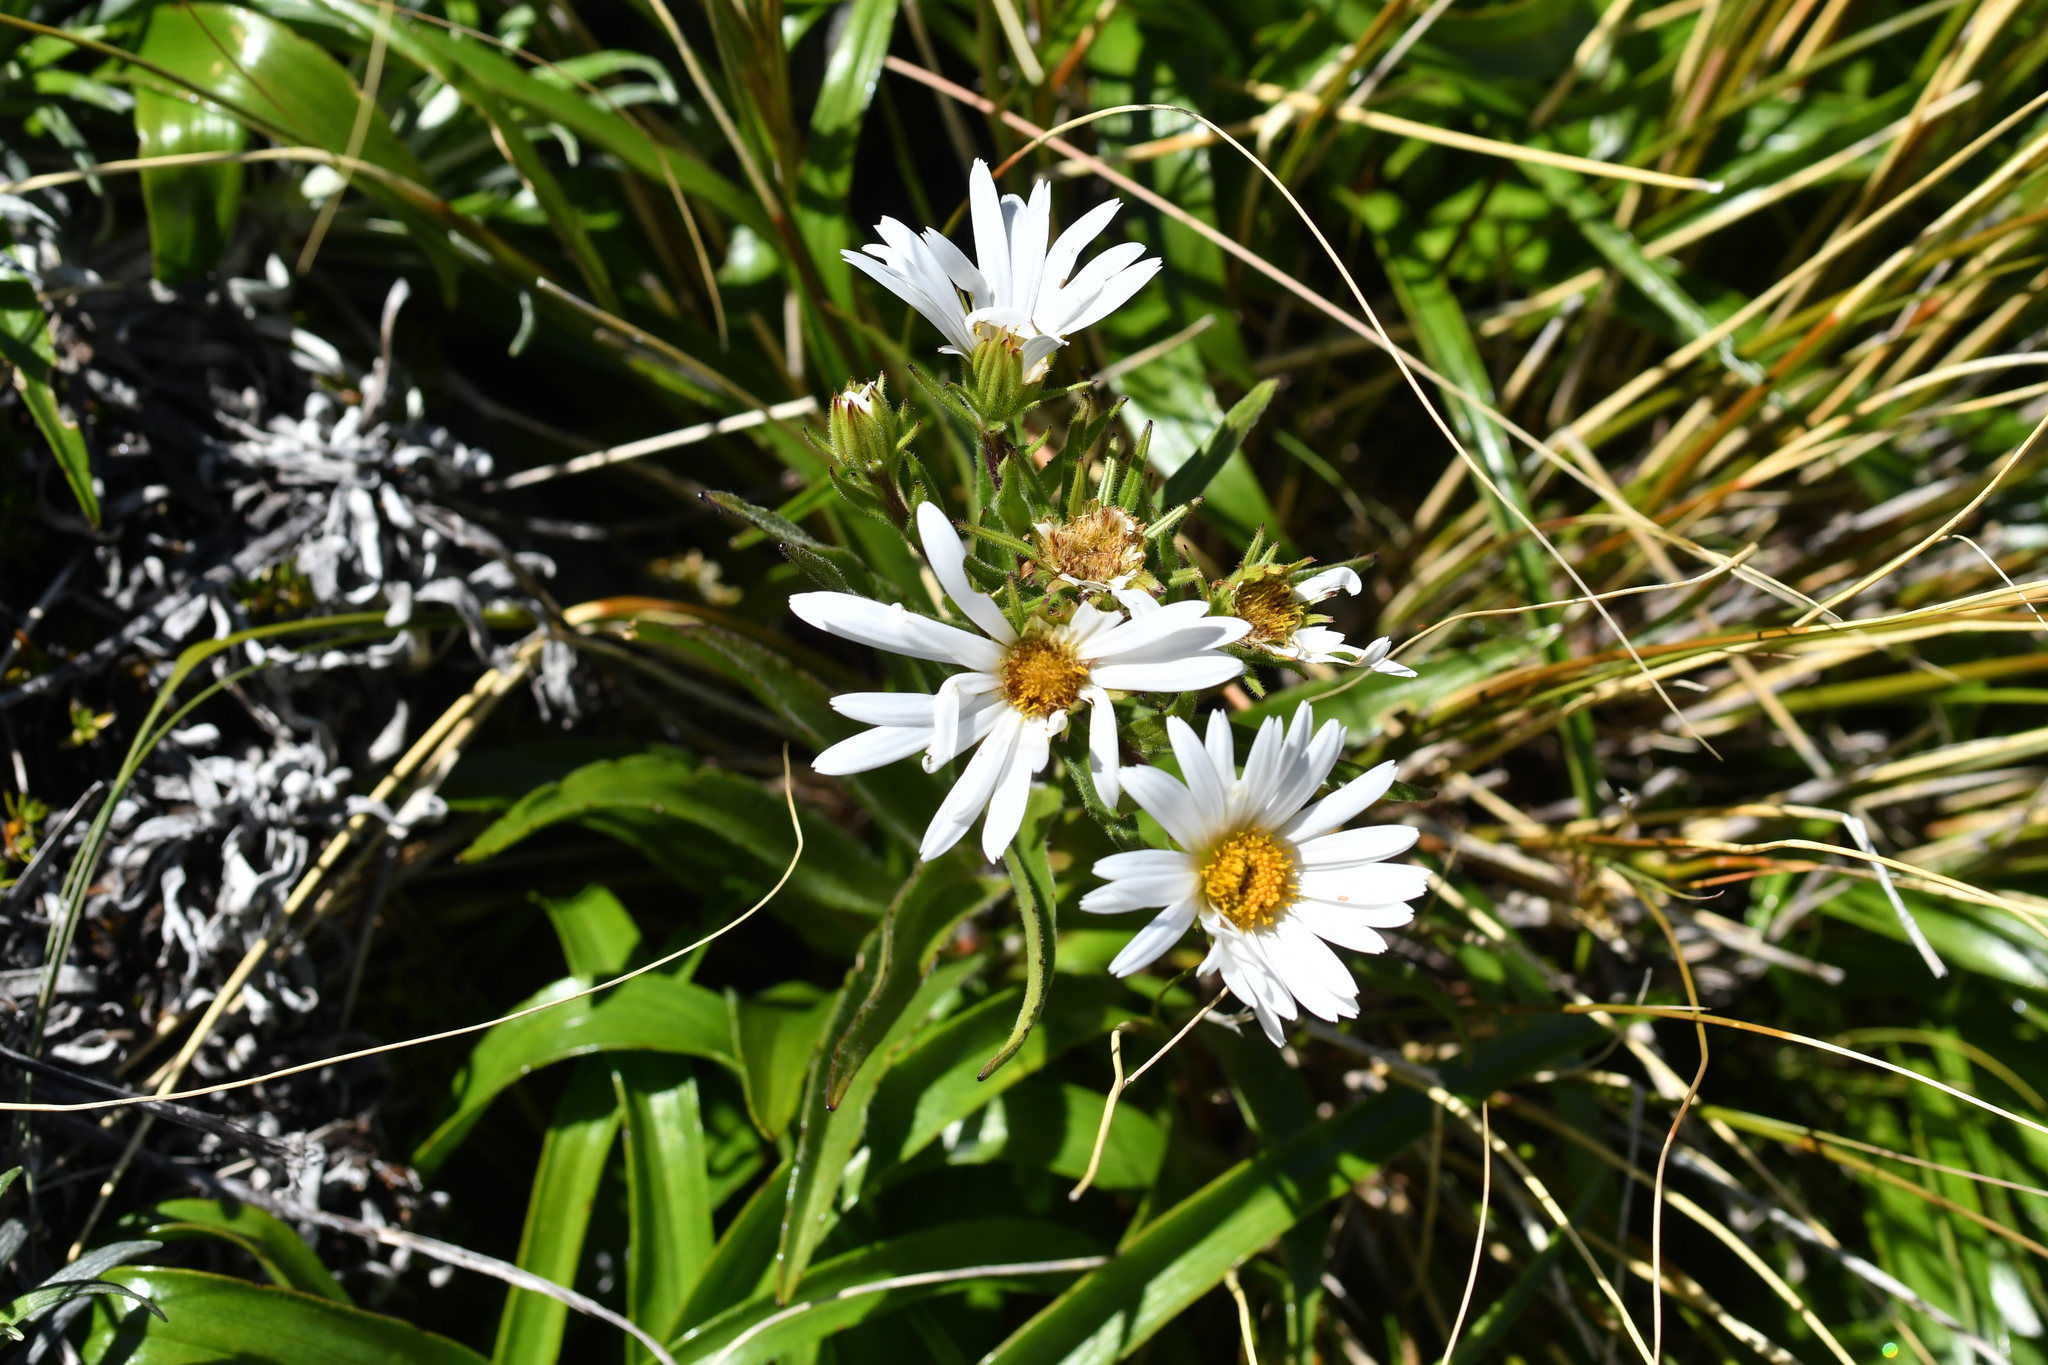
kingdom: Plantae
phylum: Tracheophyta
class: Magnoliopsida
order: Asterales
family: Asteraceae
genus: Dolichoglottis
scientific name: Dolichoglottis scorzoneroides
